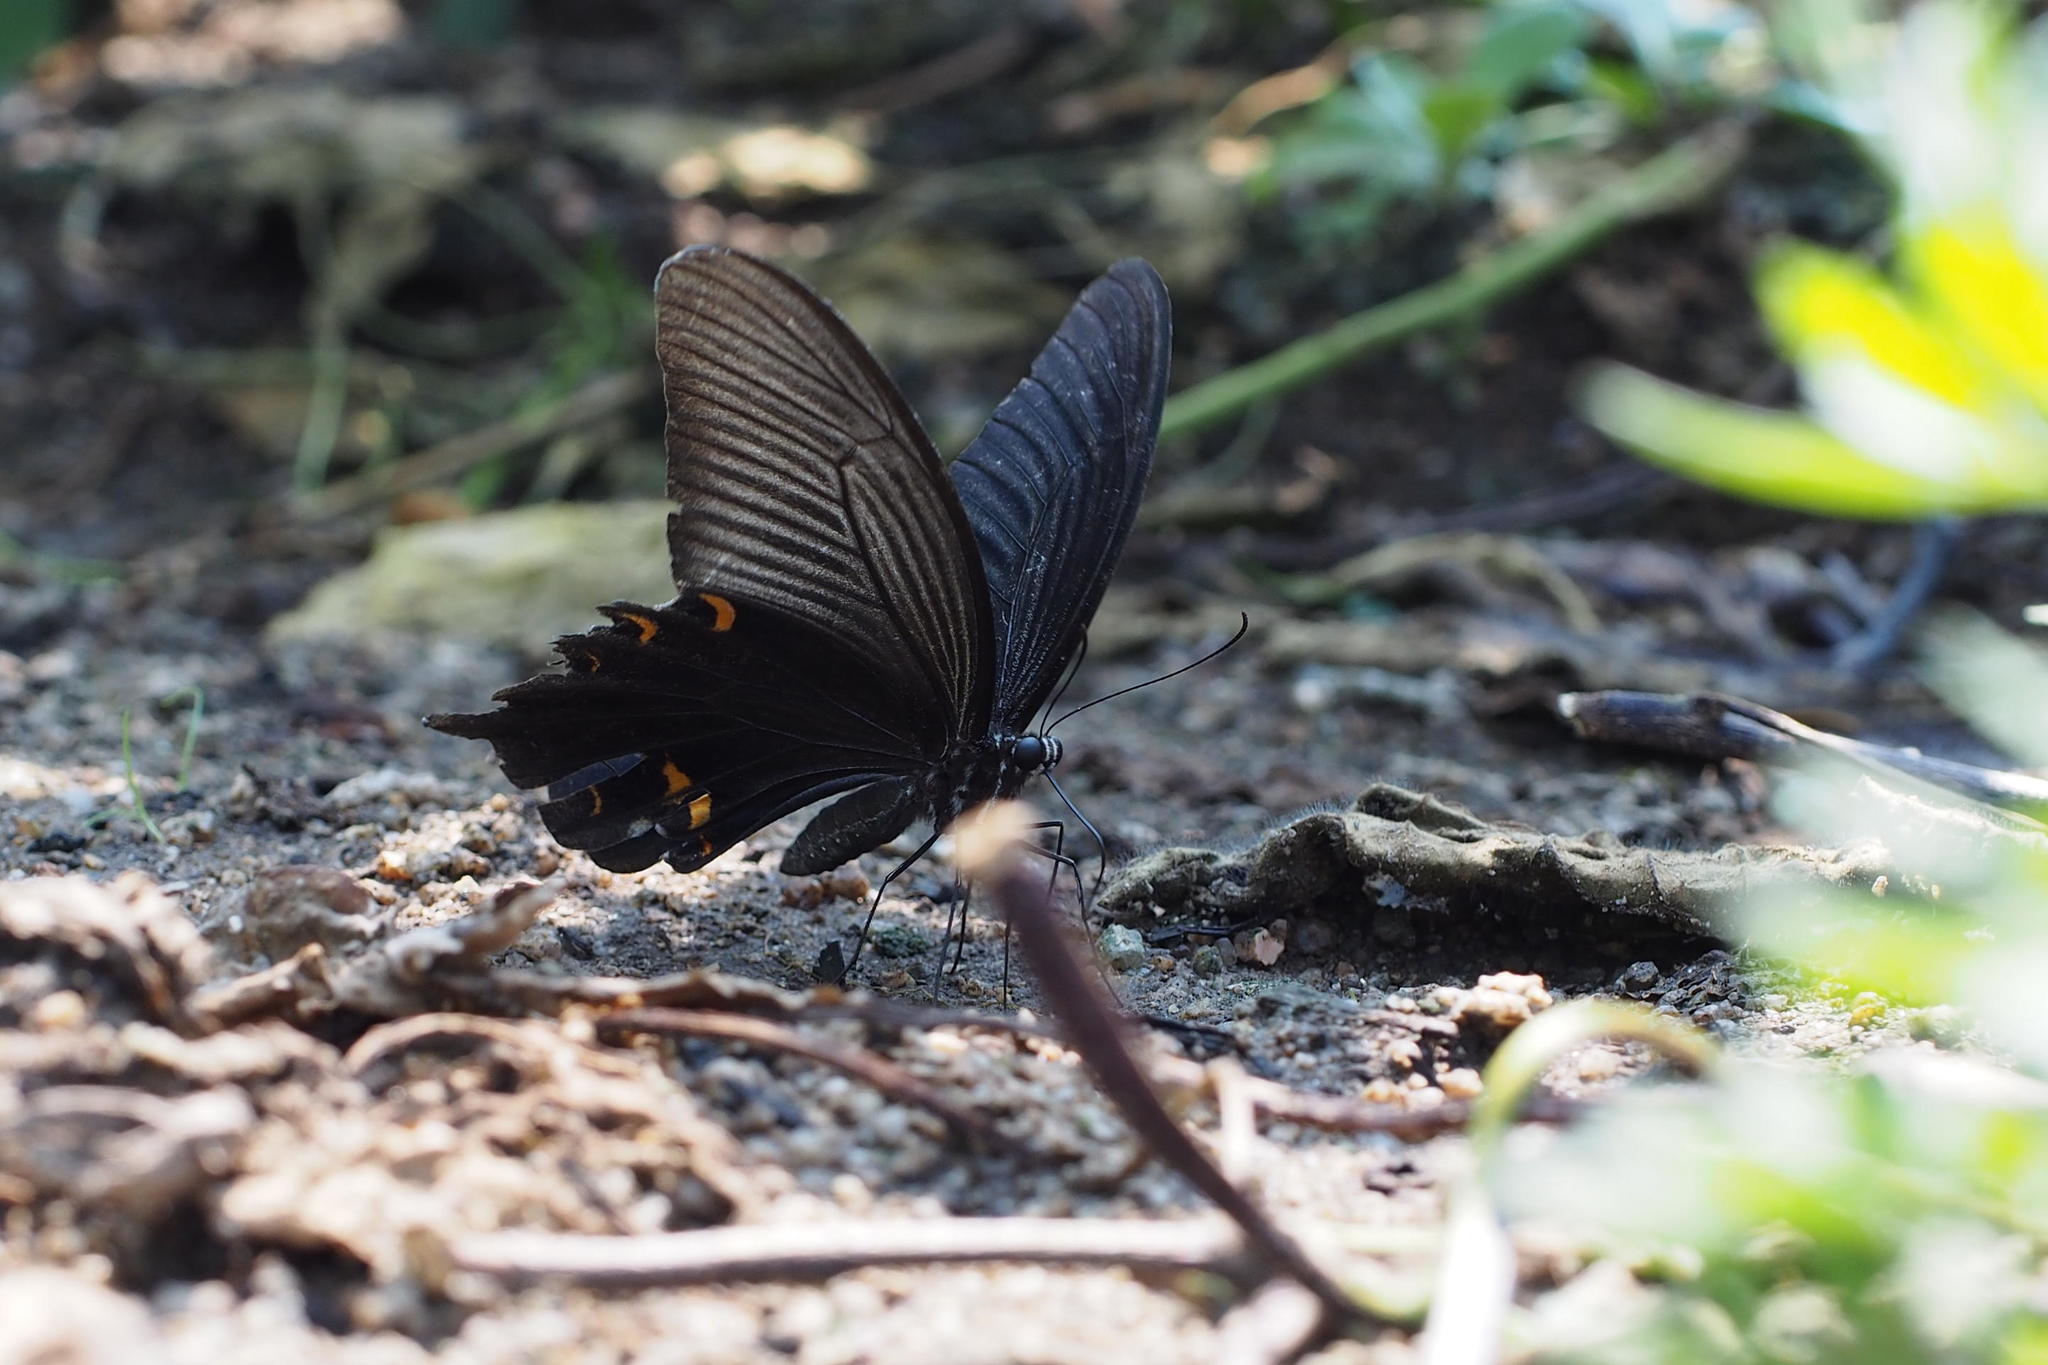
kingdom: Animalia
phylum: Arthropoda
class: Insecta
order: Lepidoptera
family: Papilionidae
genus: Papilio
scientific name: Papilio demetrius
